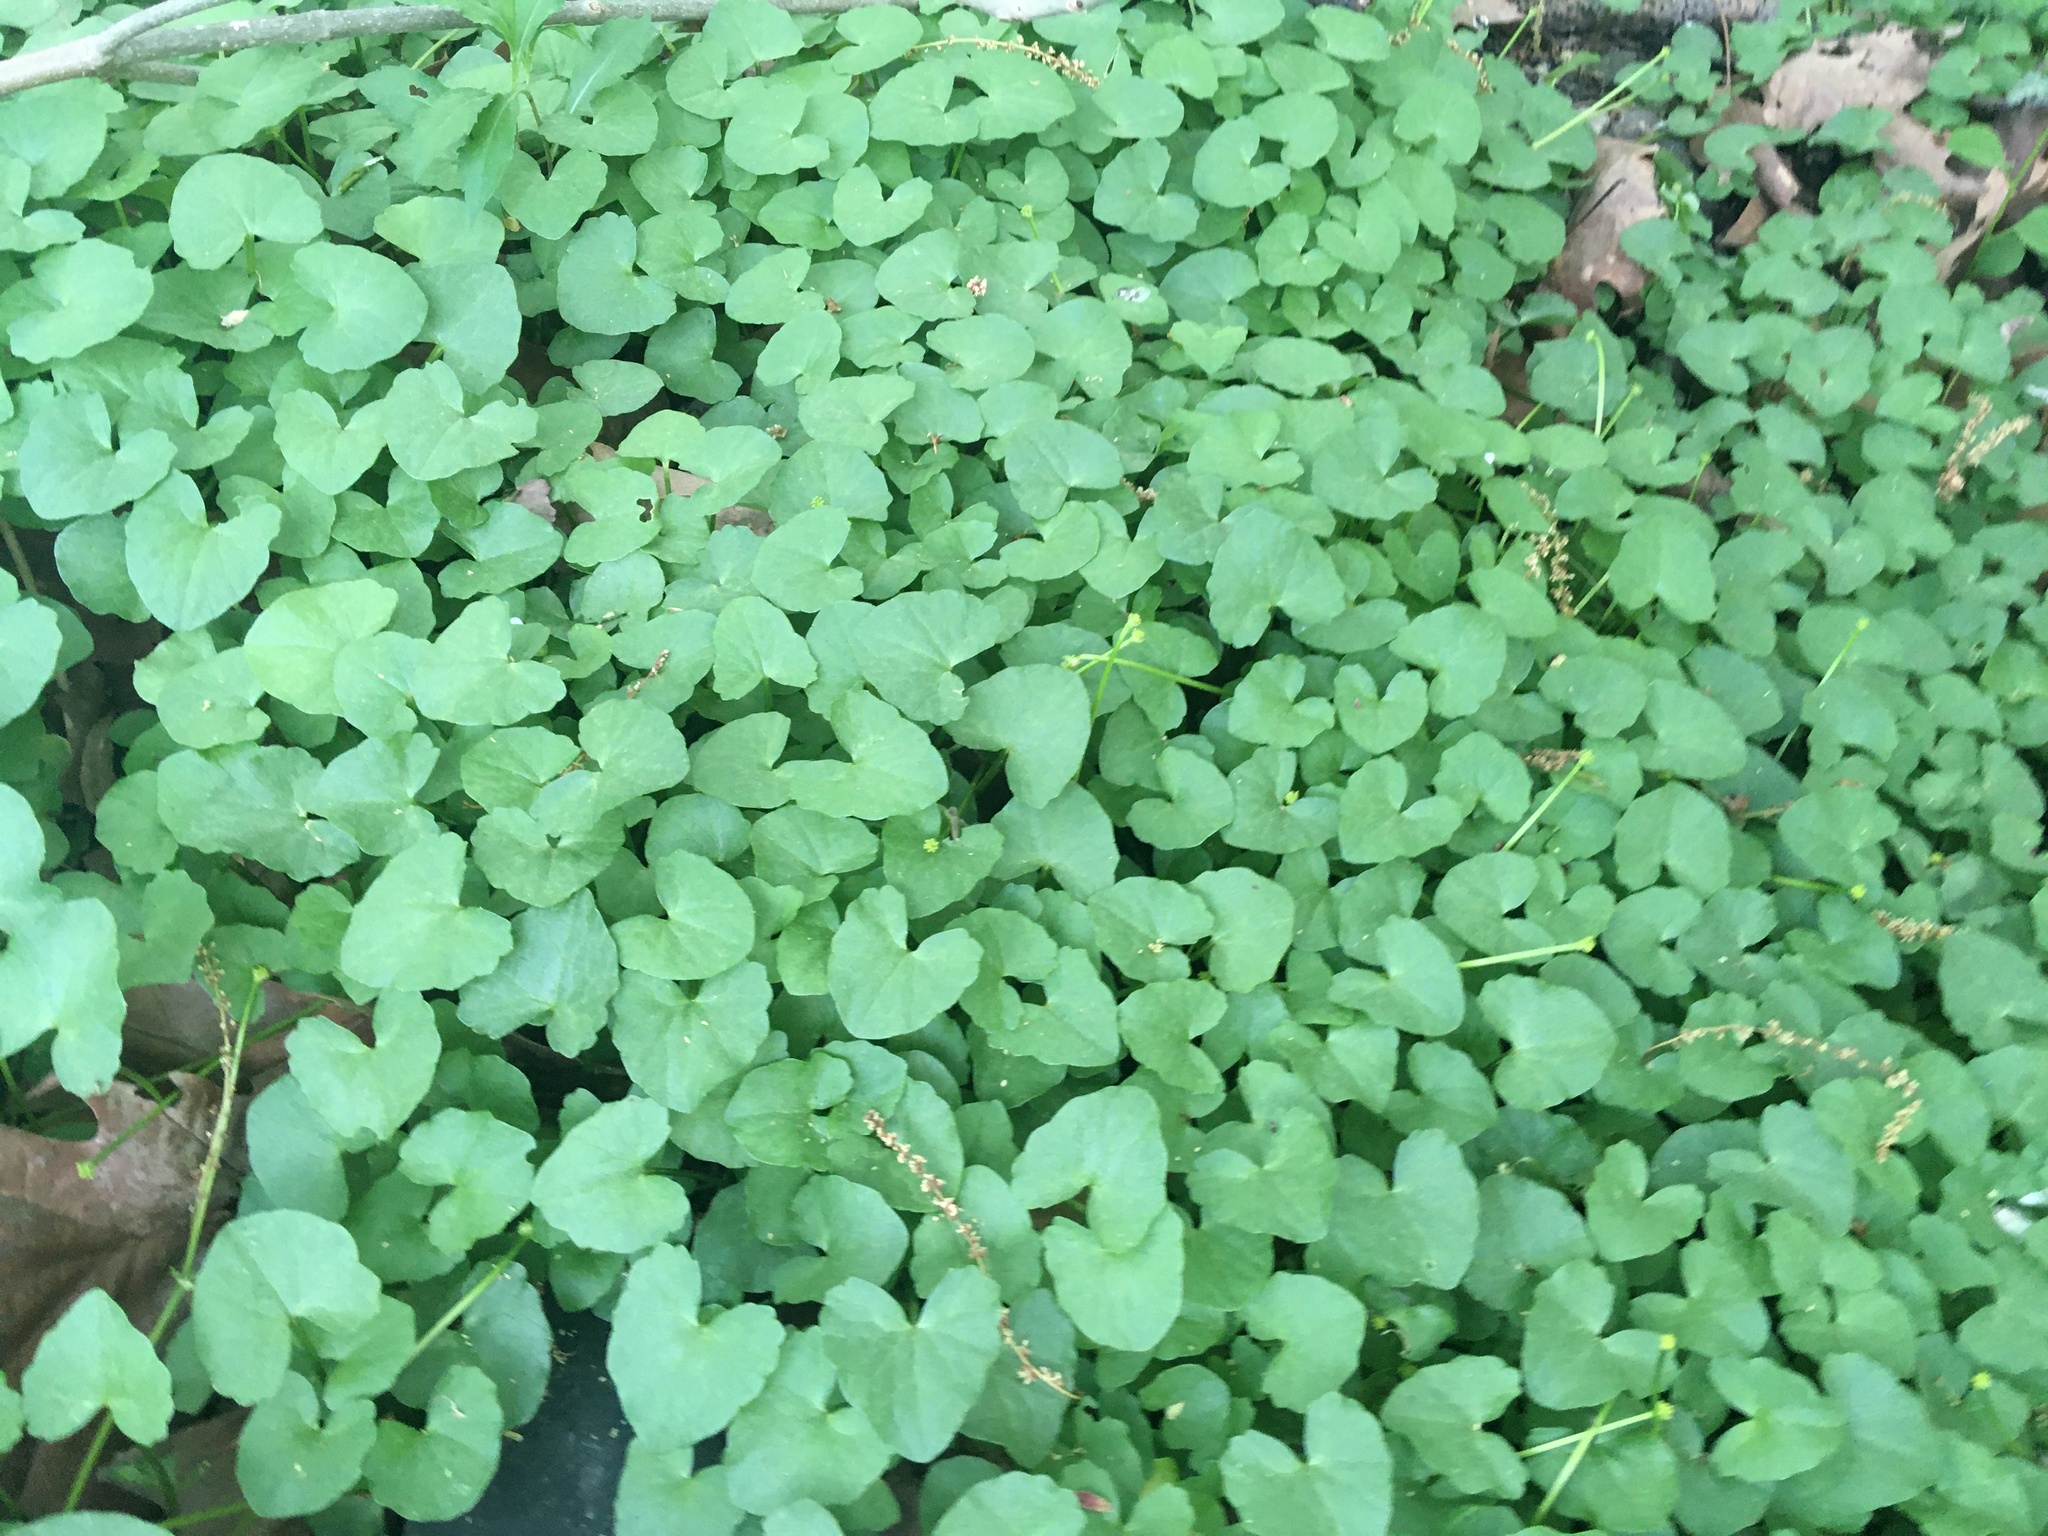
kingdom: Plantae
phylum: Tracheophyta
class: Magnoliopsida
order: Ranunculales
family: Ranunculaceae
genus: Ficaria
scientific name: Ficaria verna
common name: Lesser celandine
